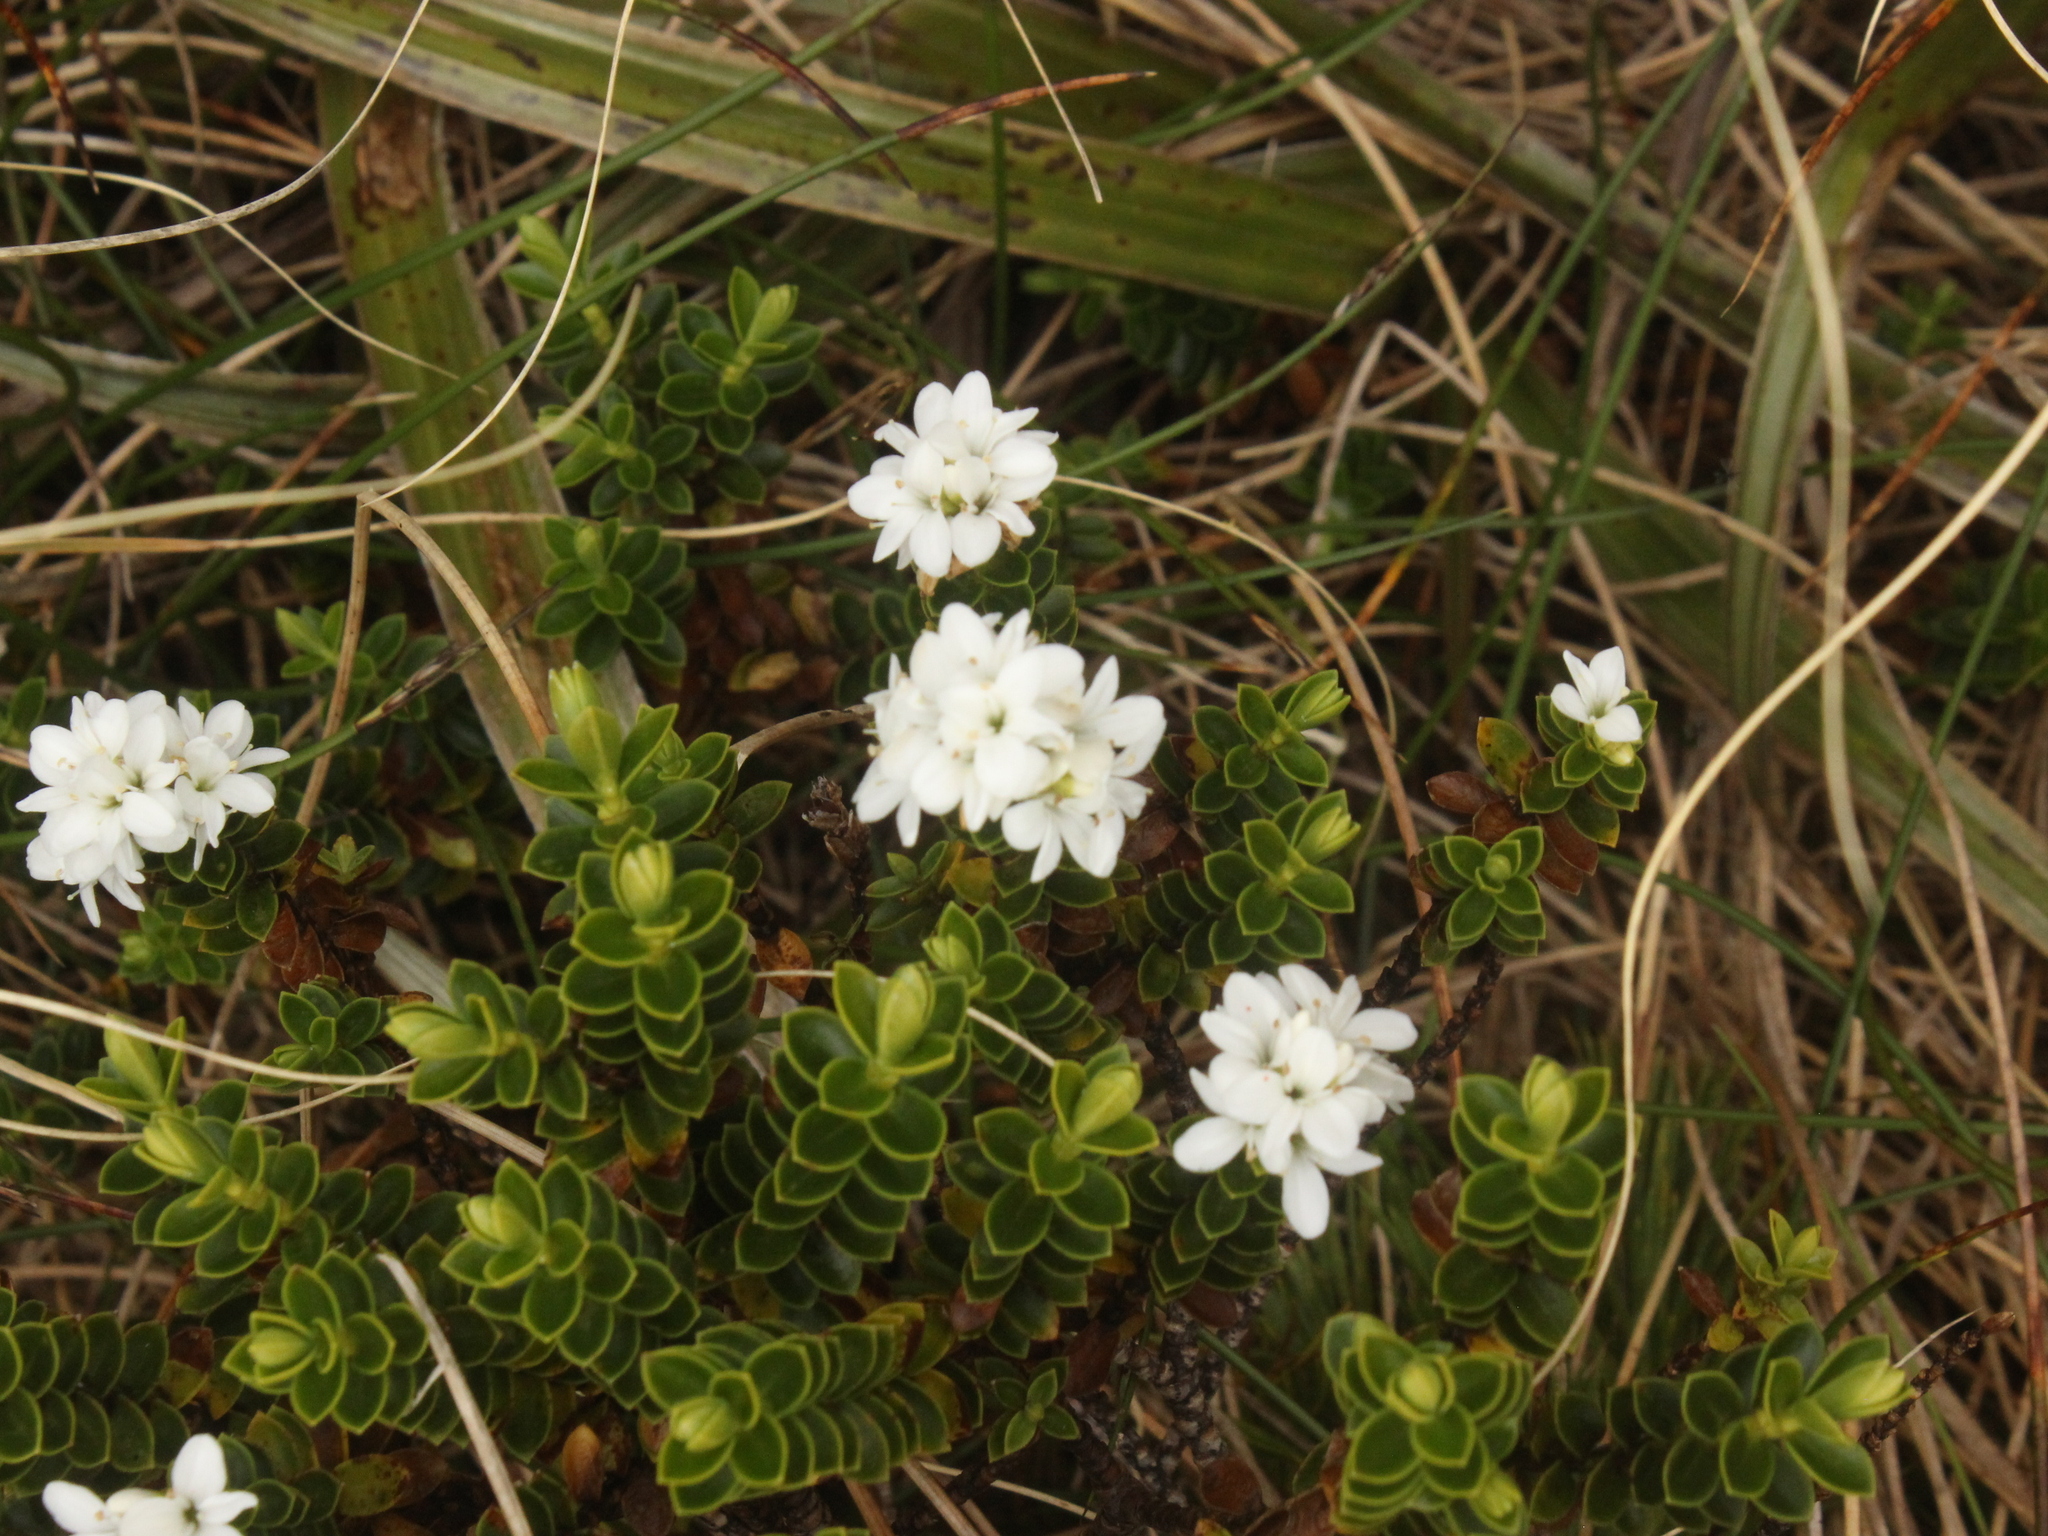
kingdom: Plantae
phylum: Tracheophyta
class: Magnoliopsida
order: Lamiales
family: Plantaginaceae
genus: Veronica
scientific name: Veronica odora
